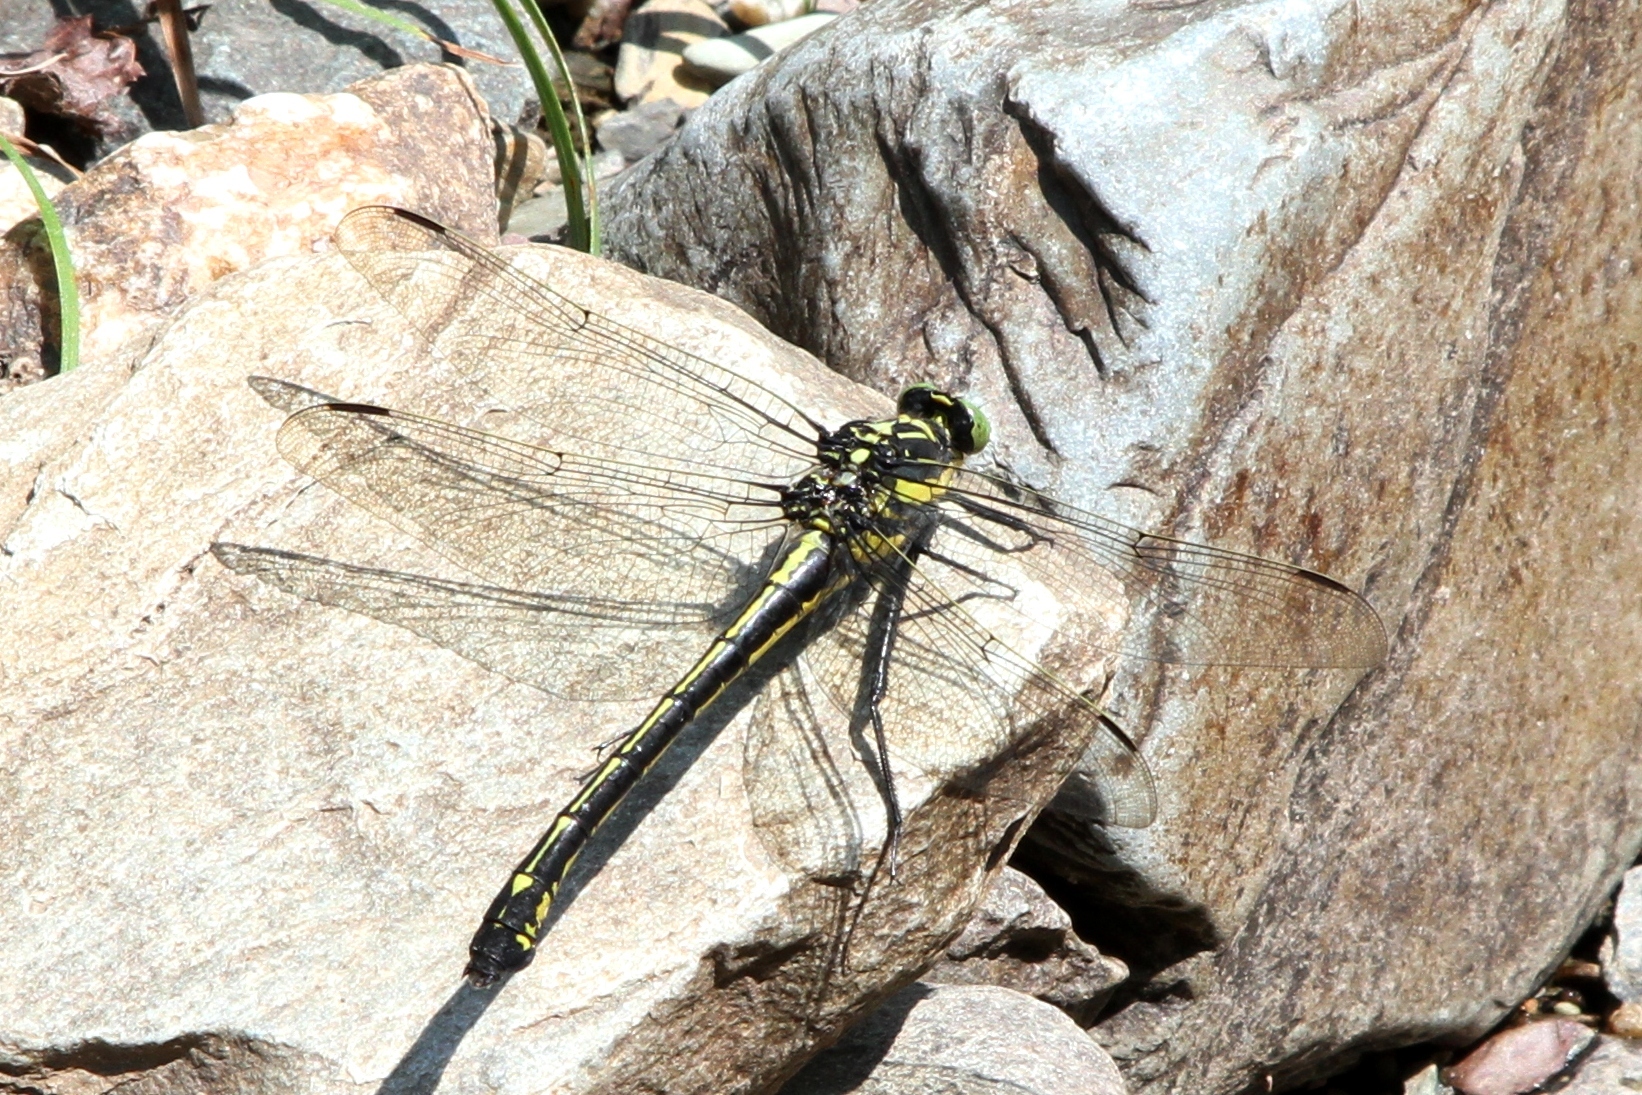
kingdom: Animalia
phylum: Arthropoda
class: Insecta
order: Odonata
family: Gomphidae
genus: Hagenius
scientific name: Hagenius brevistylus
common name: Dragonhunter
